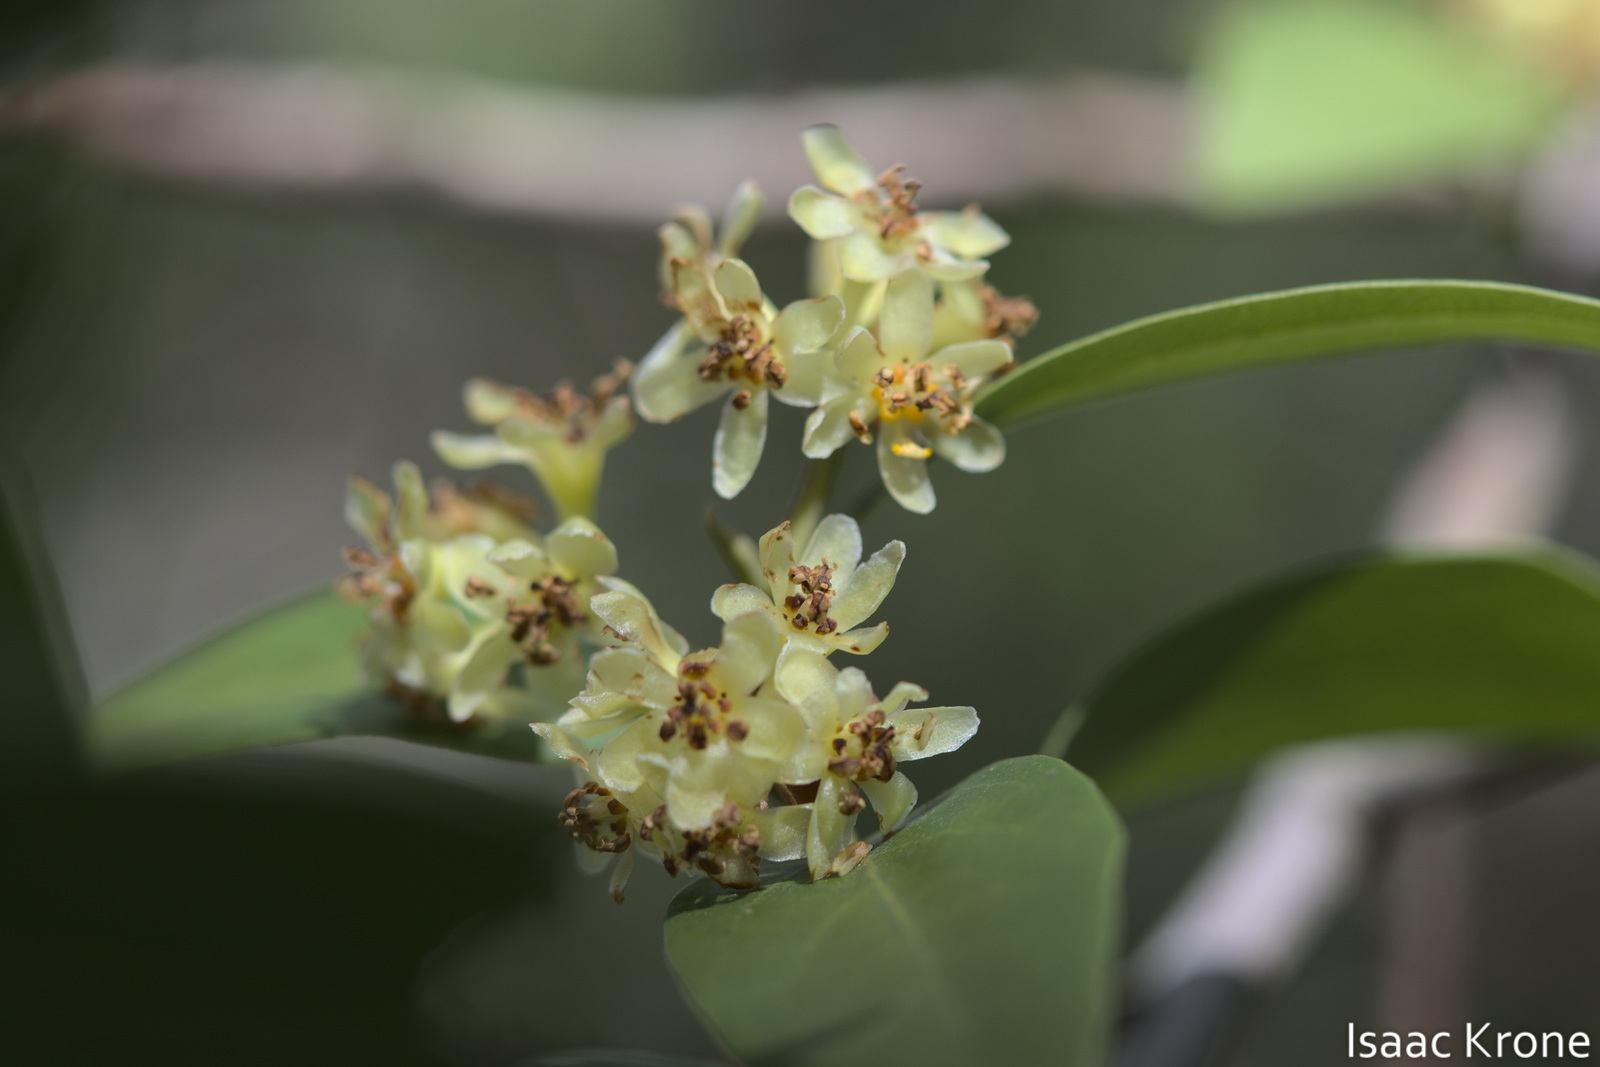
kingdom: Plantae
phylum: Tracheophyta
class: Magnoliopsida
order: Laurales
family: Lauraceae
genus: Umbellularia
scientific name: Umbellularia californica
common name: California bay
